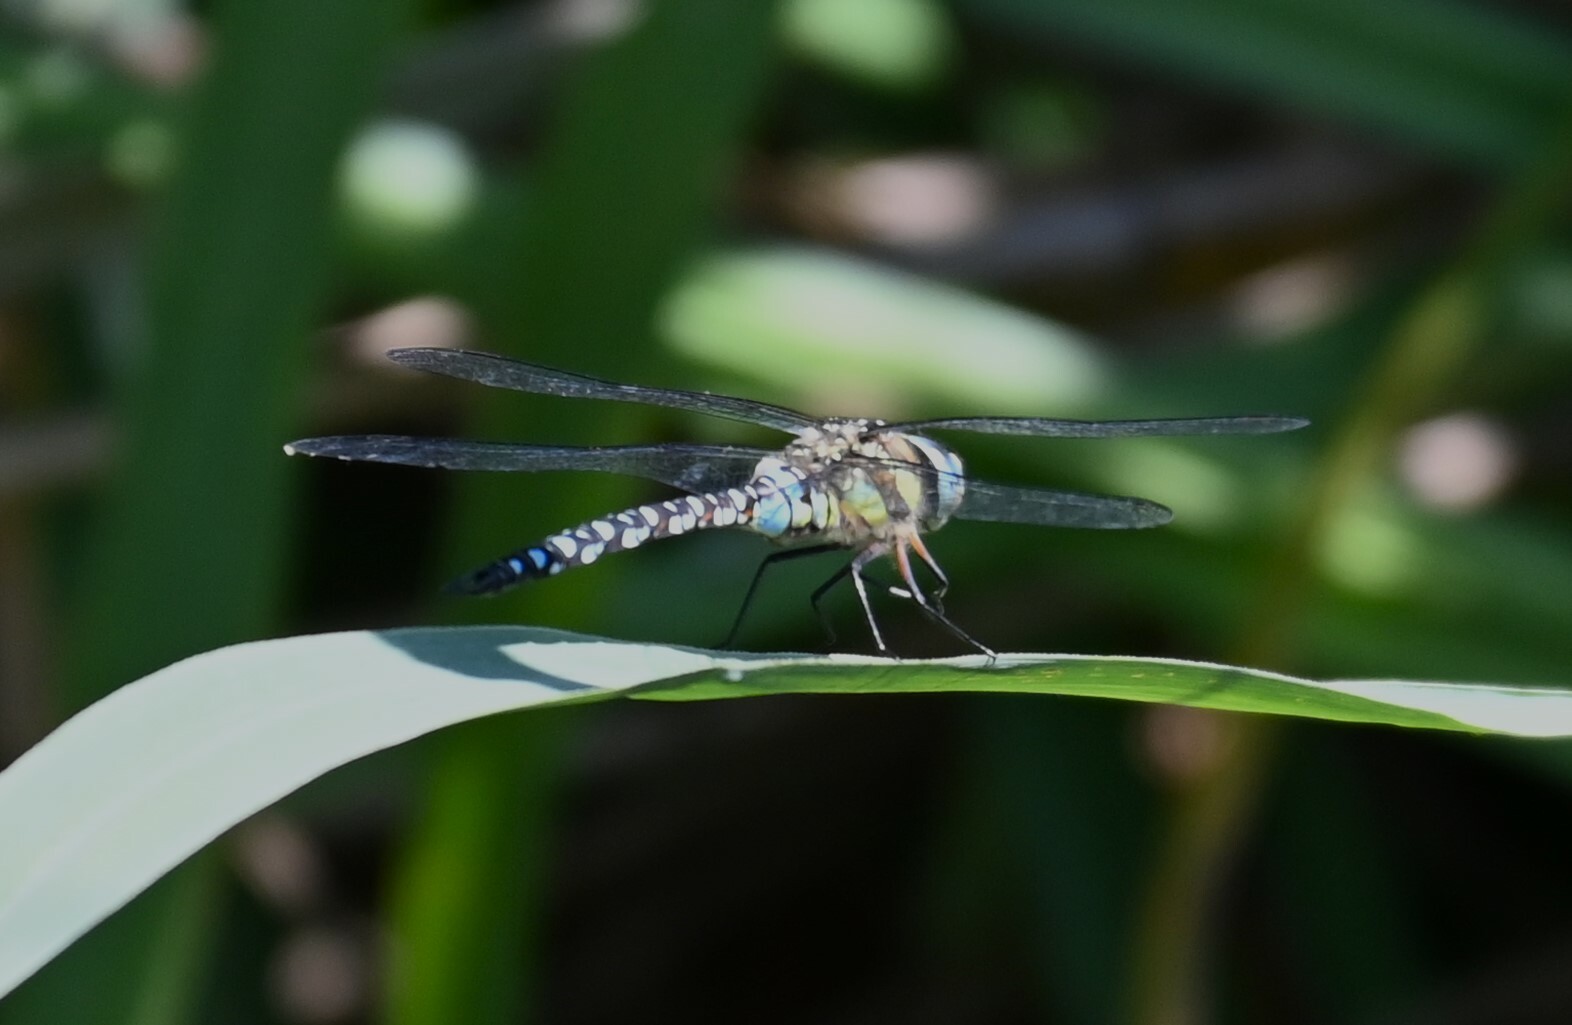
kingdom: Animalia
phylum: Arthropoda
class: Insecta
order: Odonata
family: Aeshnidae
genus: Aeshna
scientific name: Aeshna mixta
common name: Migrant hawker
